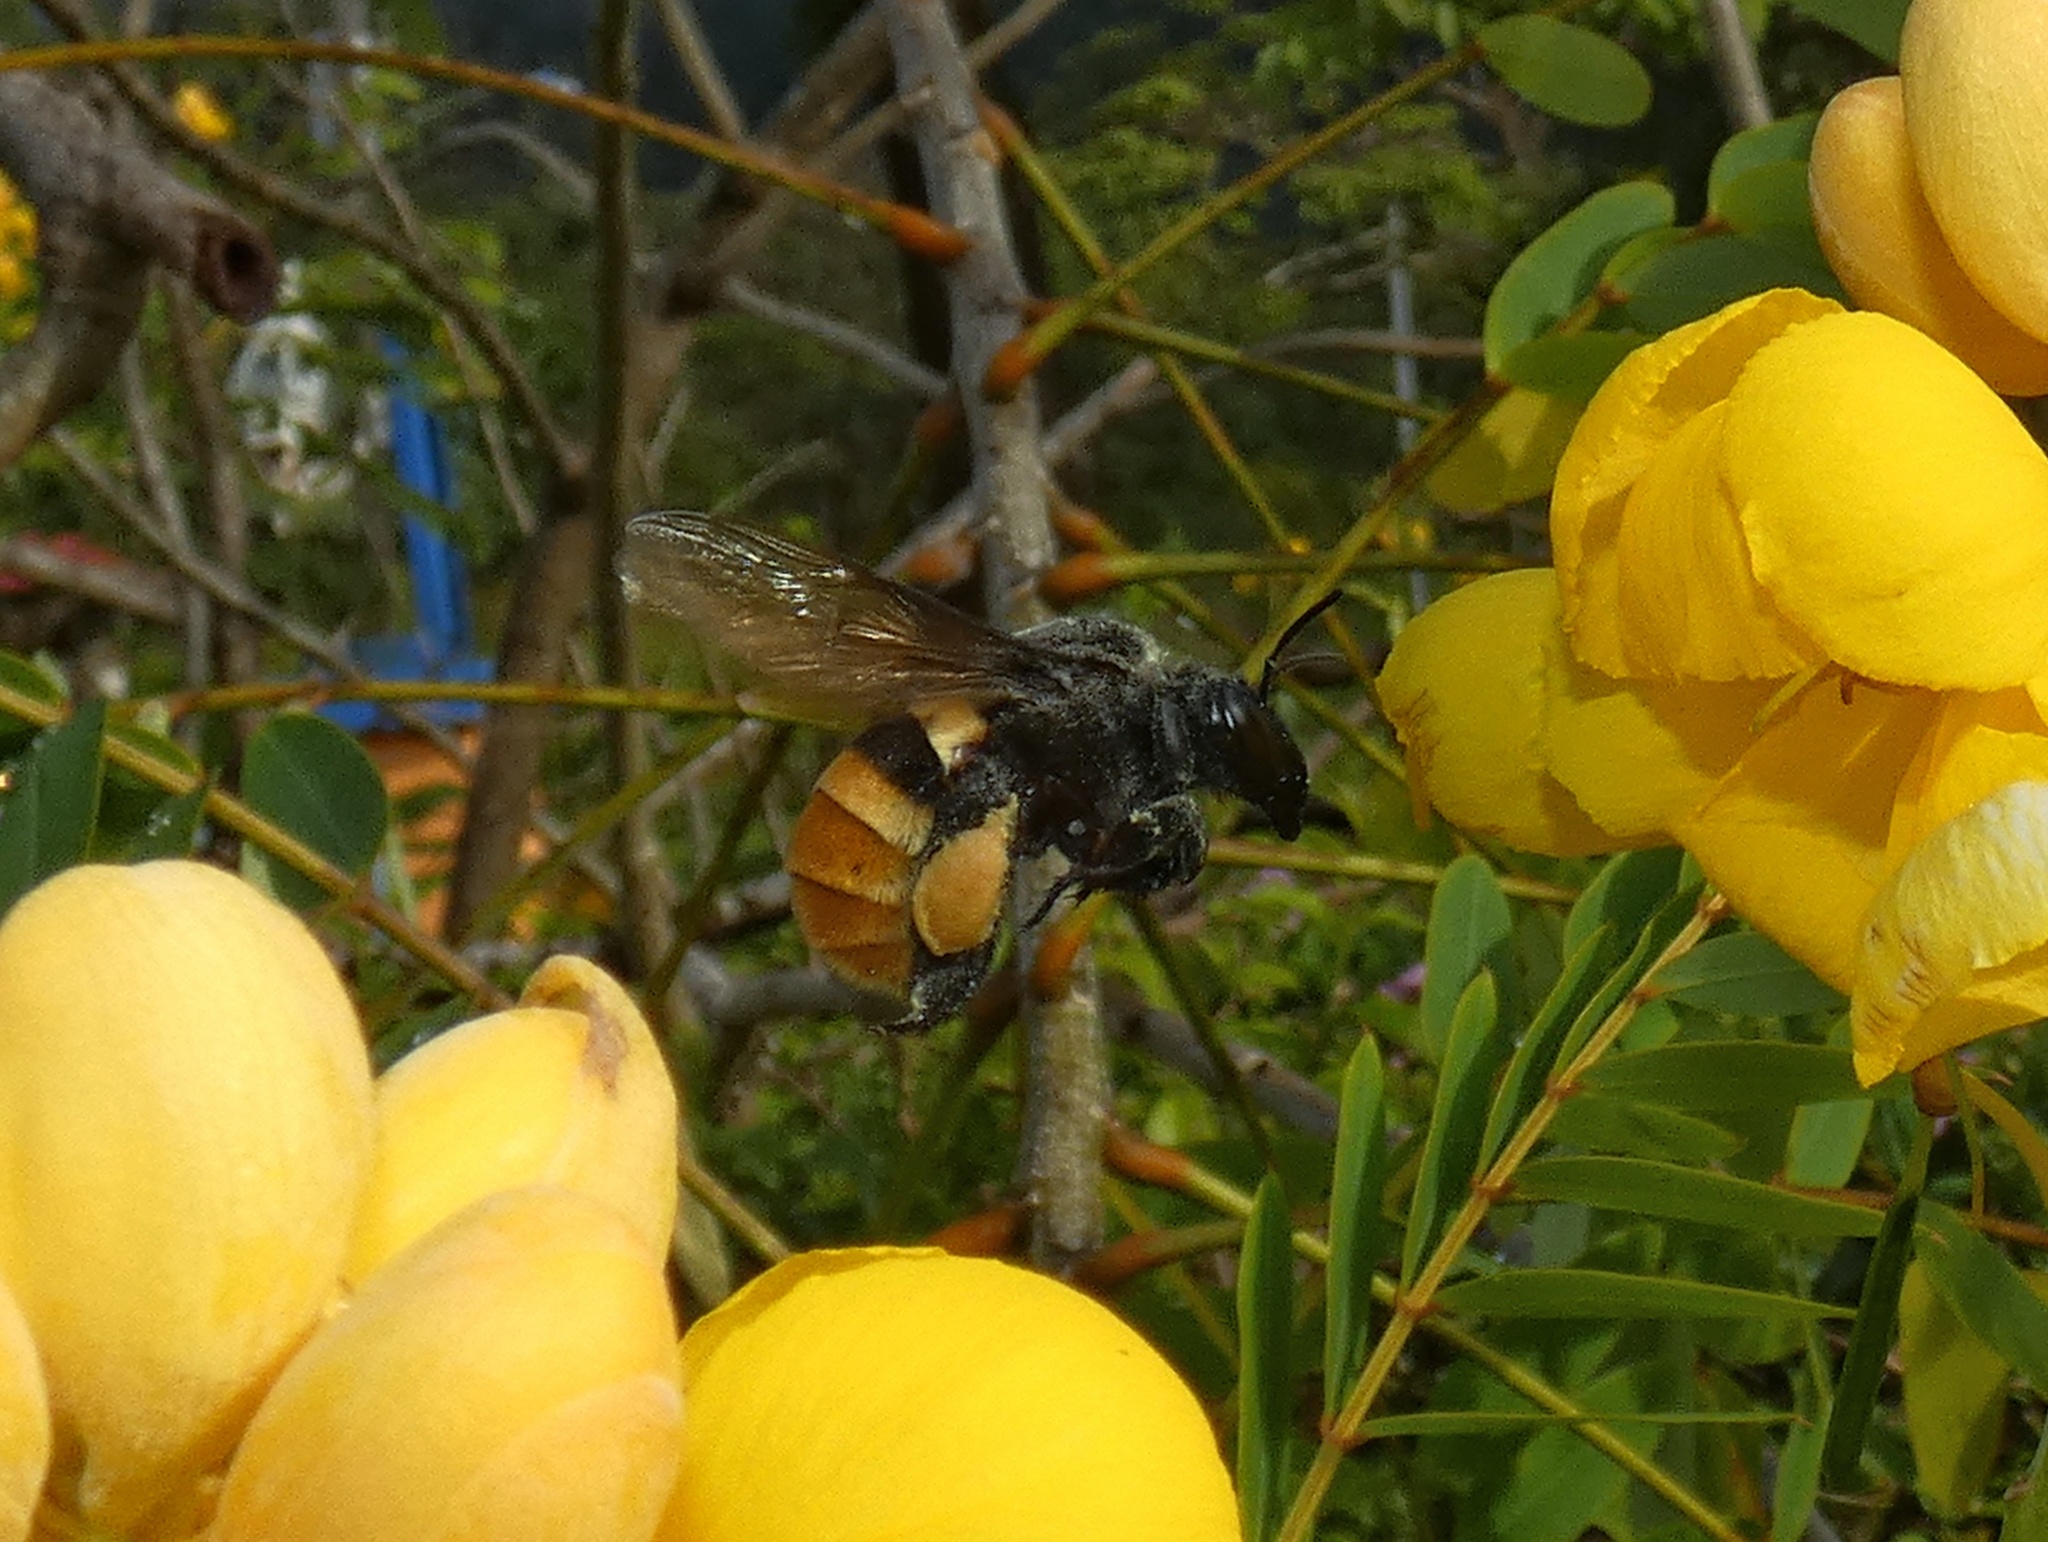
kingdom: Animalia
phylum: Arthropoda
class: Insecta
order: Hymenoptera
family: Apidae
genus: Eulaema
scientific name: Eulaema cingulata
